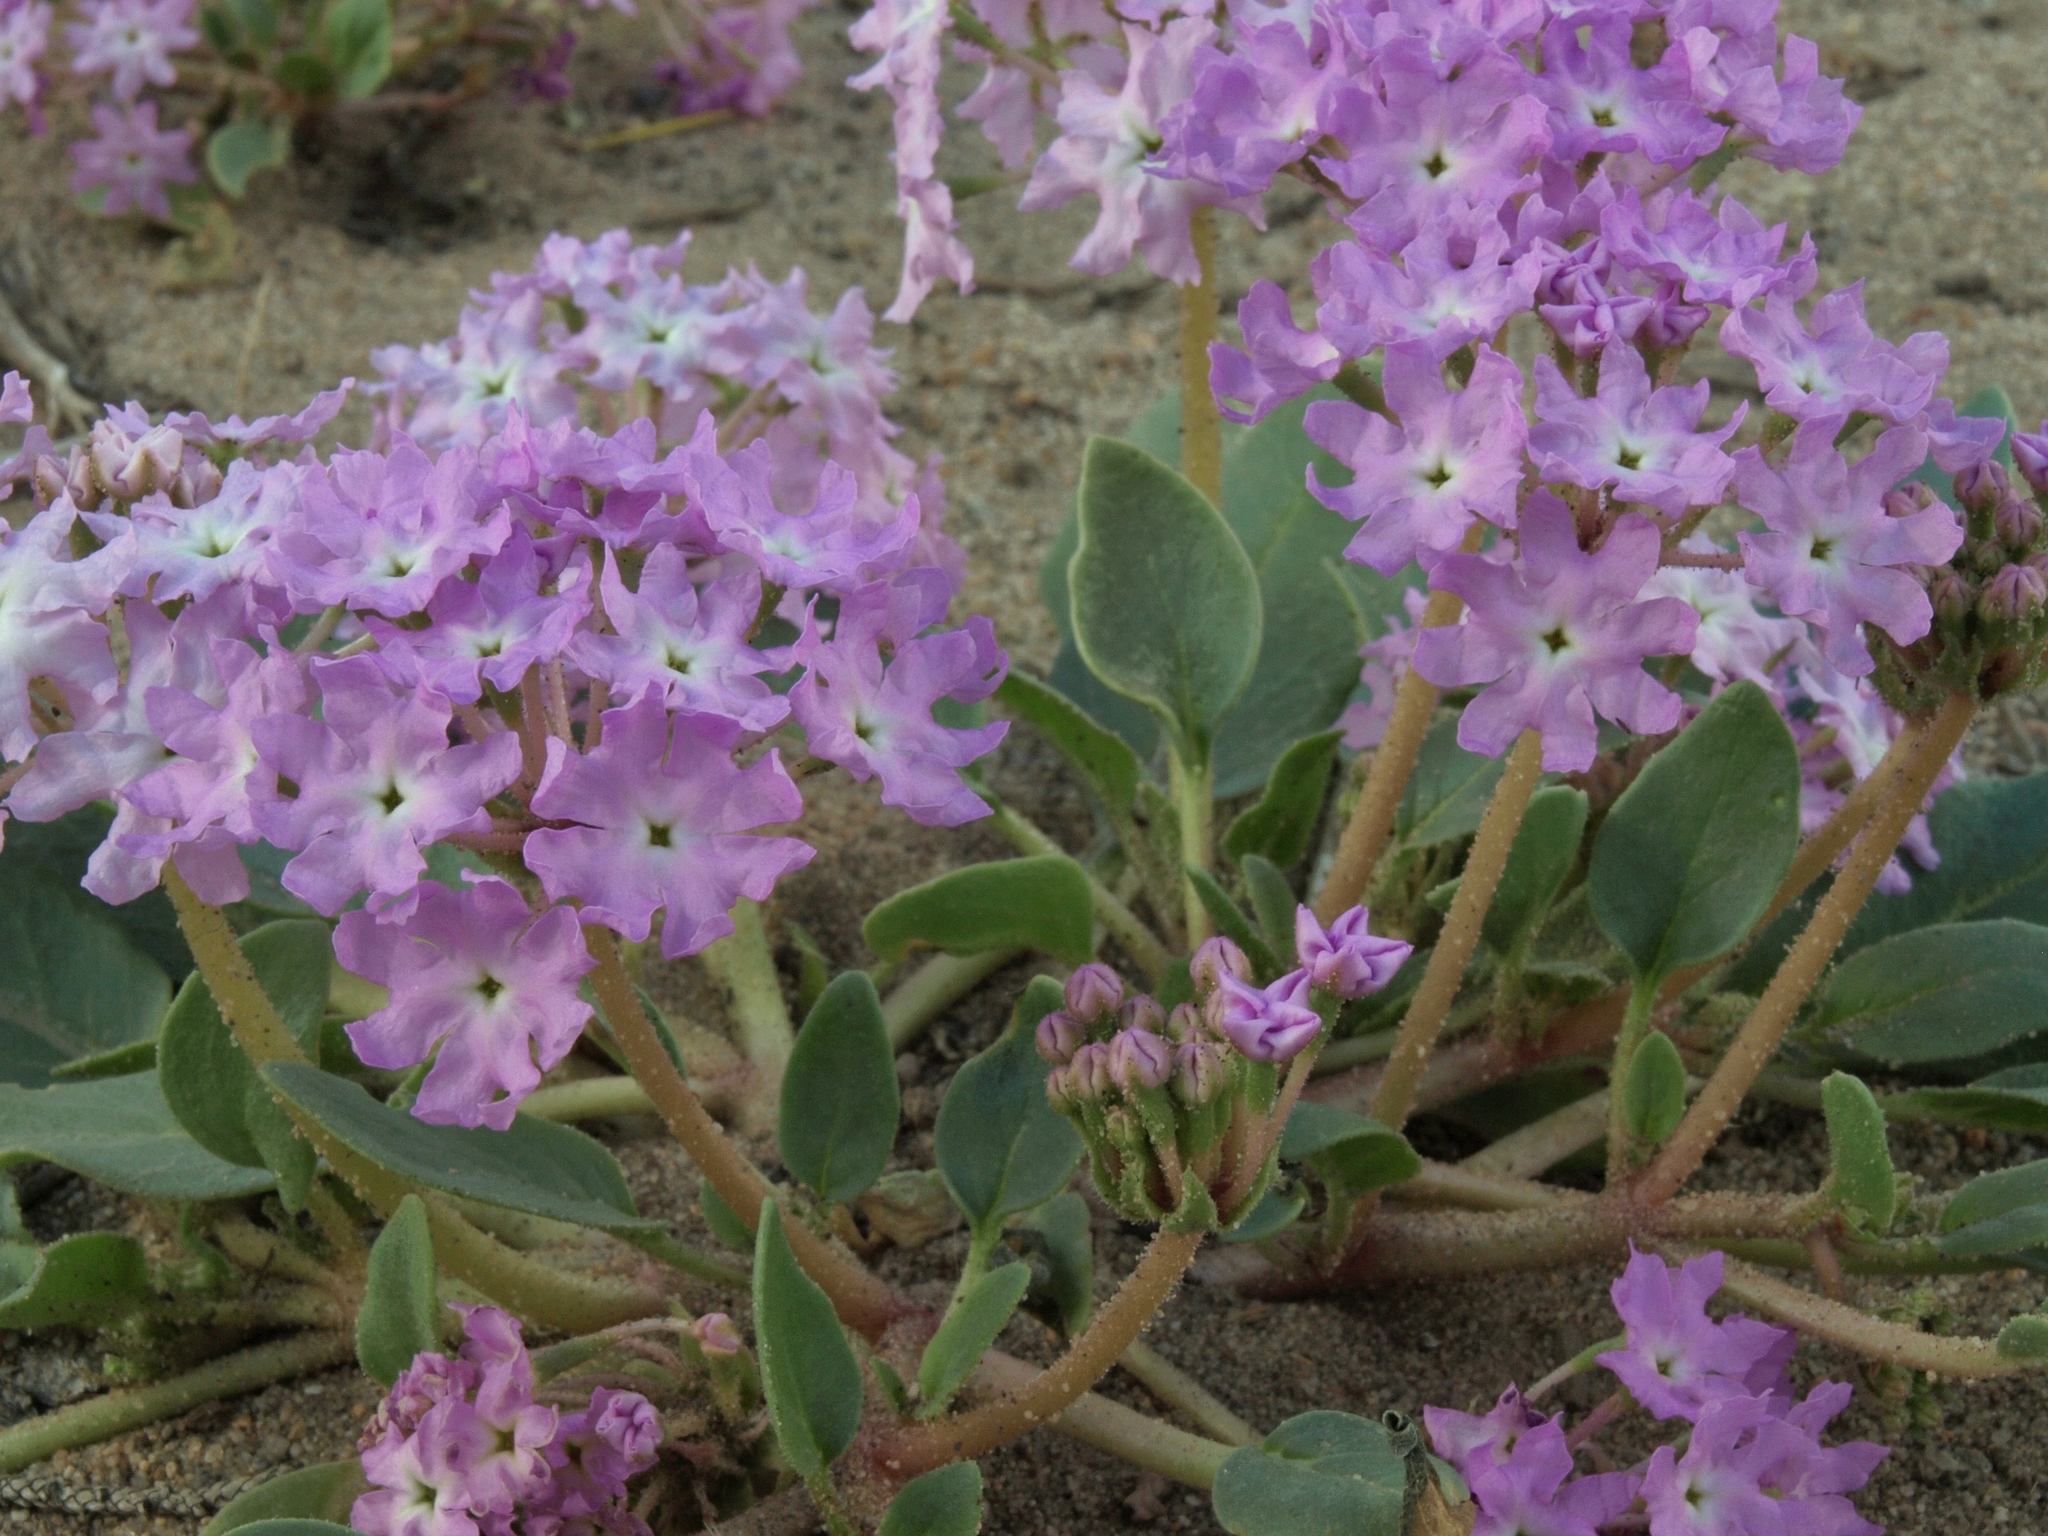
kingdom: Plantae
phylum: Tracheophyta
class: Magnoliopsida
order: Caryophyllales
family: Nyctaginaceae
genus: Tripterocalyx
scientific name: Tripterocalyx crux-maltae
